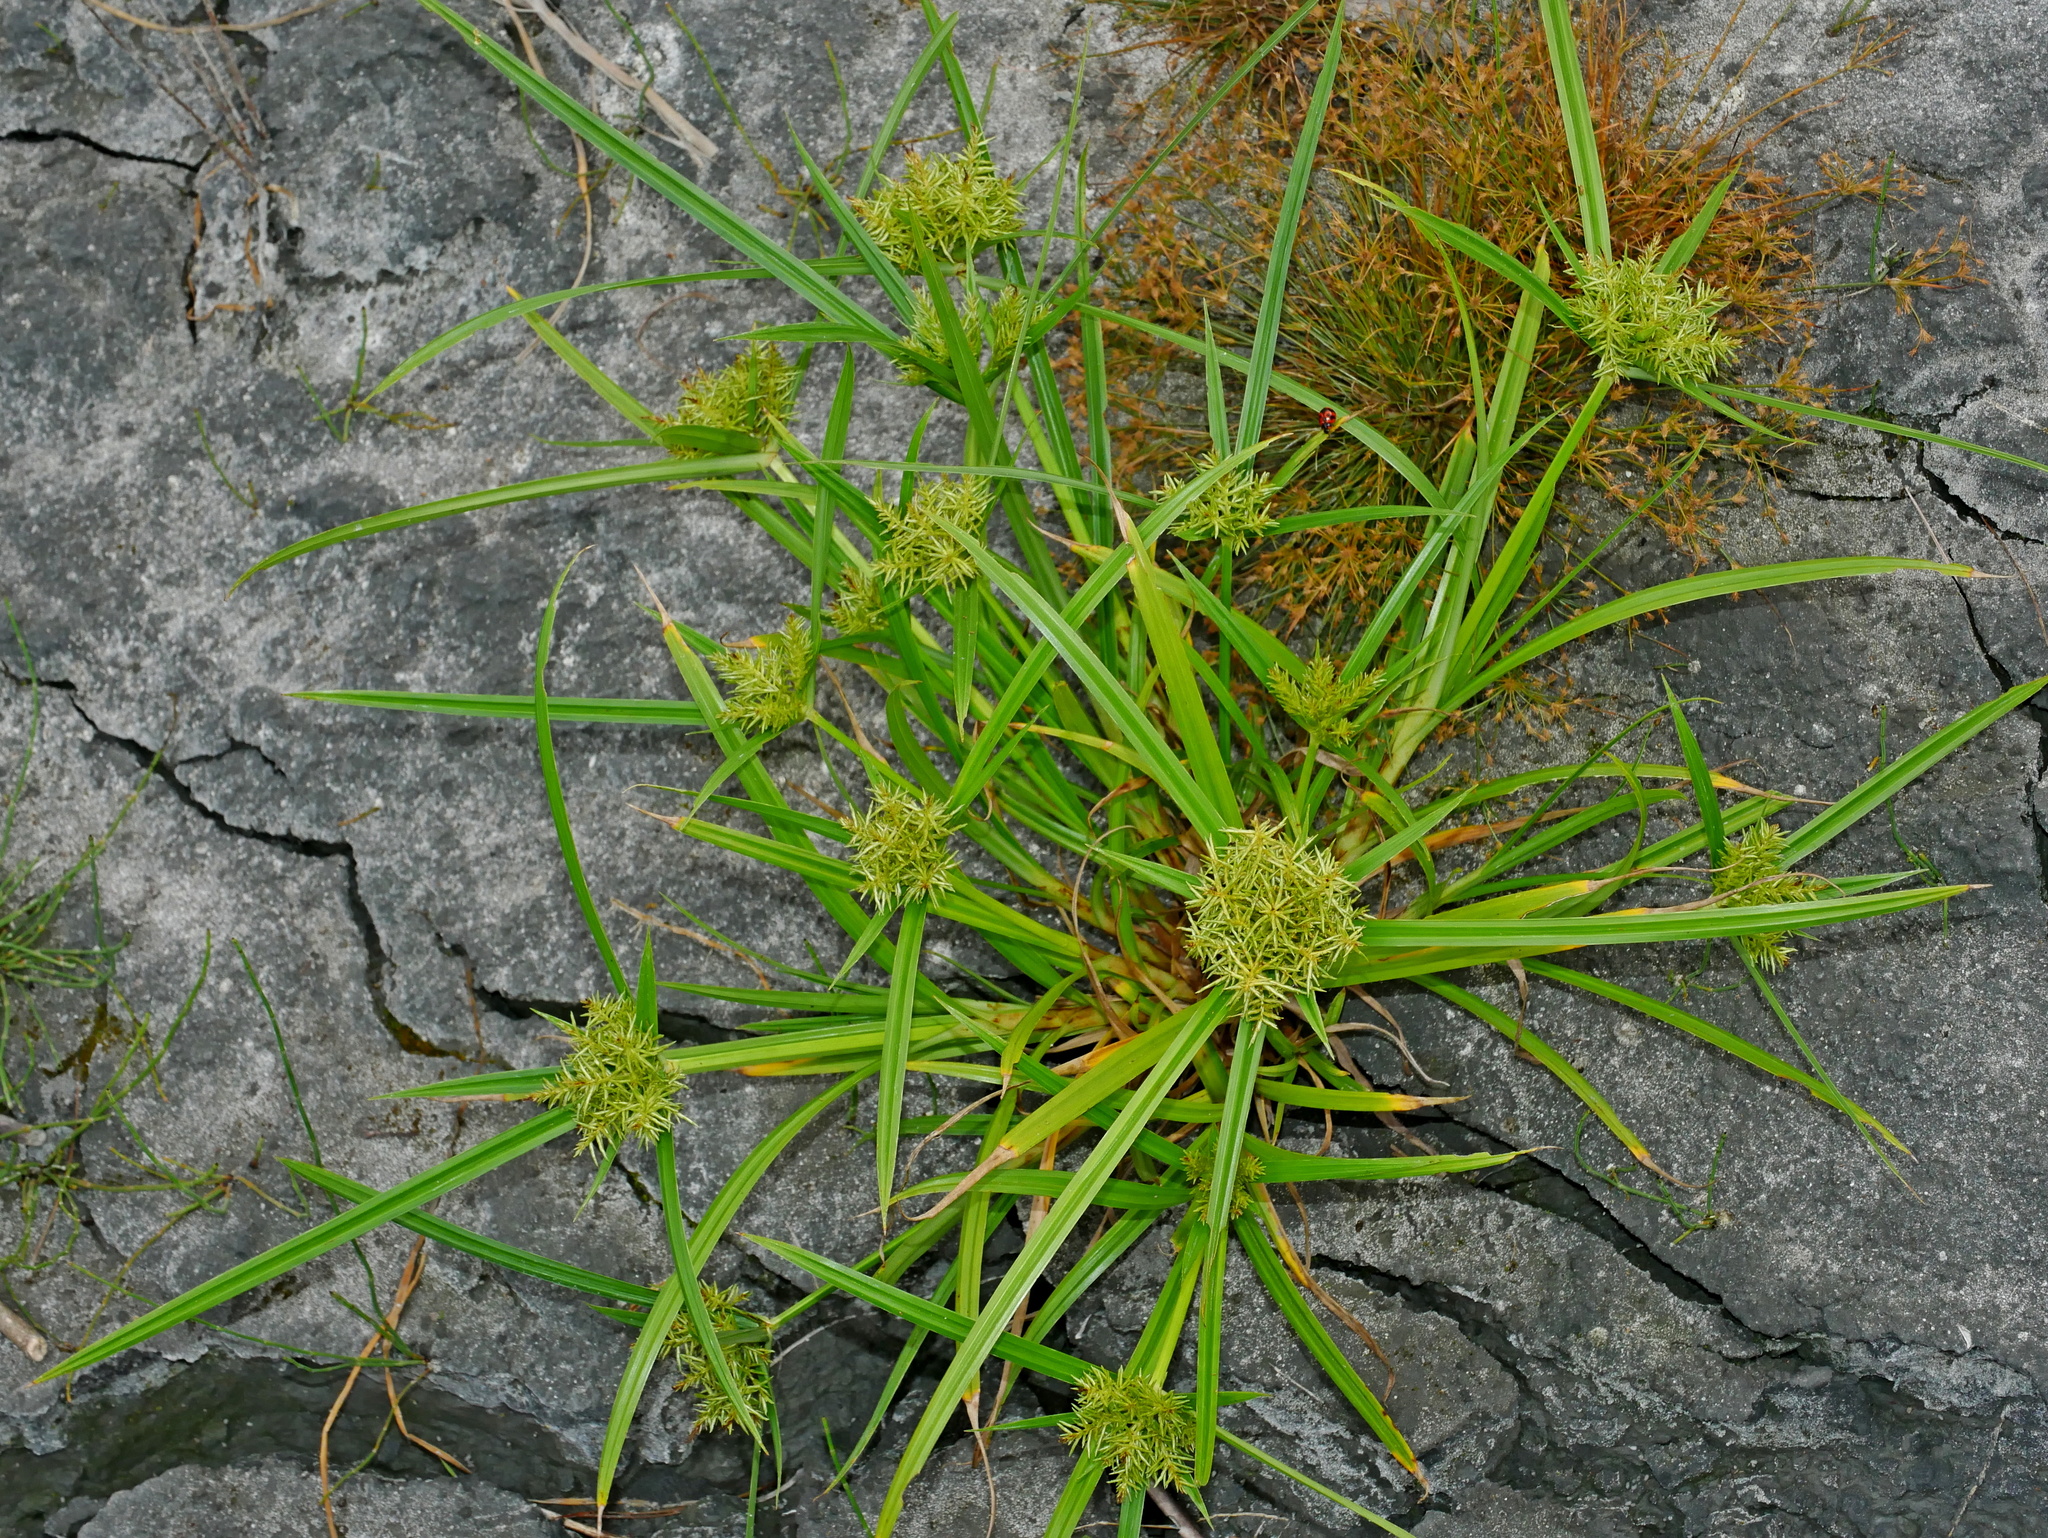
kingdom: Plantae
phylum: Tracheophyta
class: Liliopsida
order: Poales
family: Cyperaceae
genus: Cyperus
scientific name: Cyperus odoratus
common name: Fragrant flatsedge
